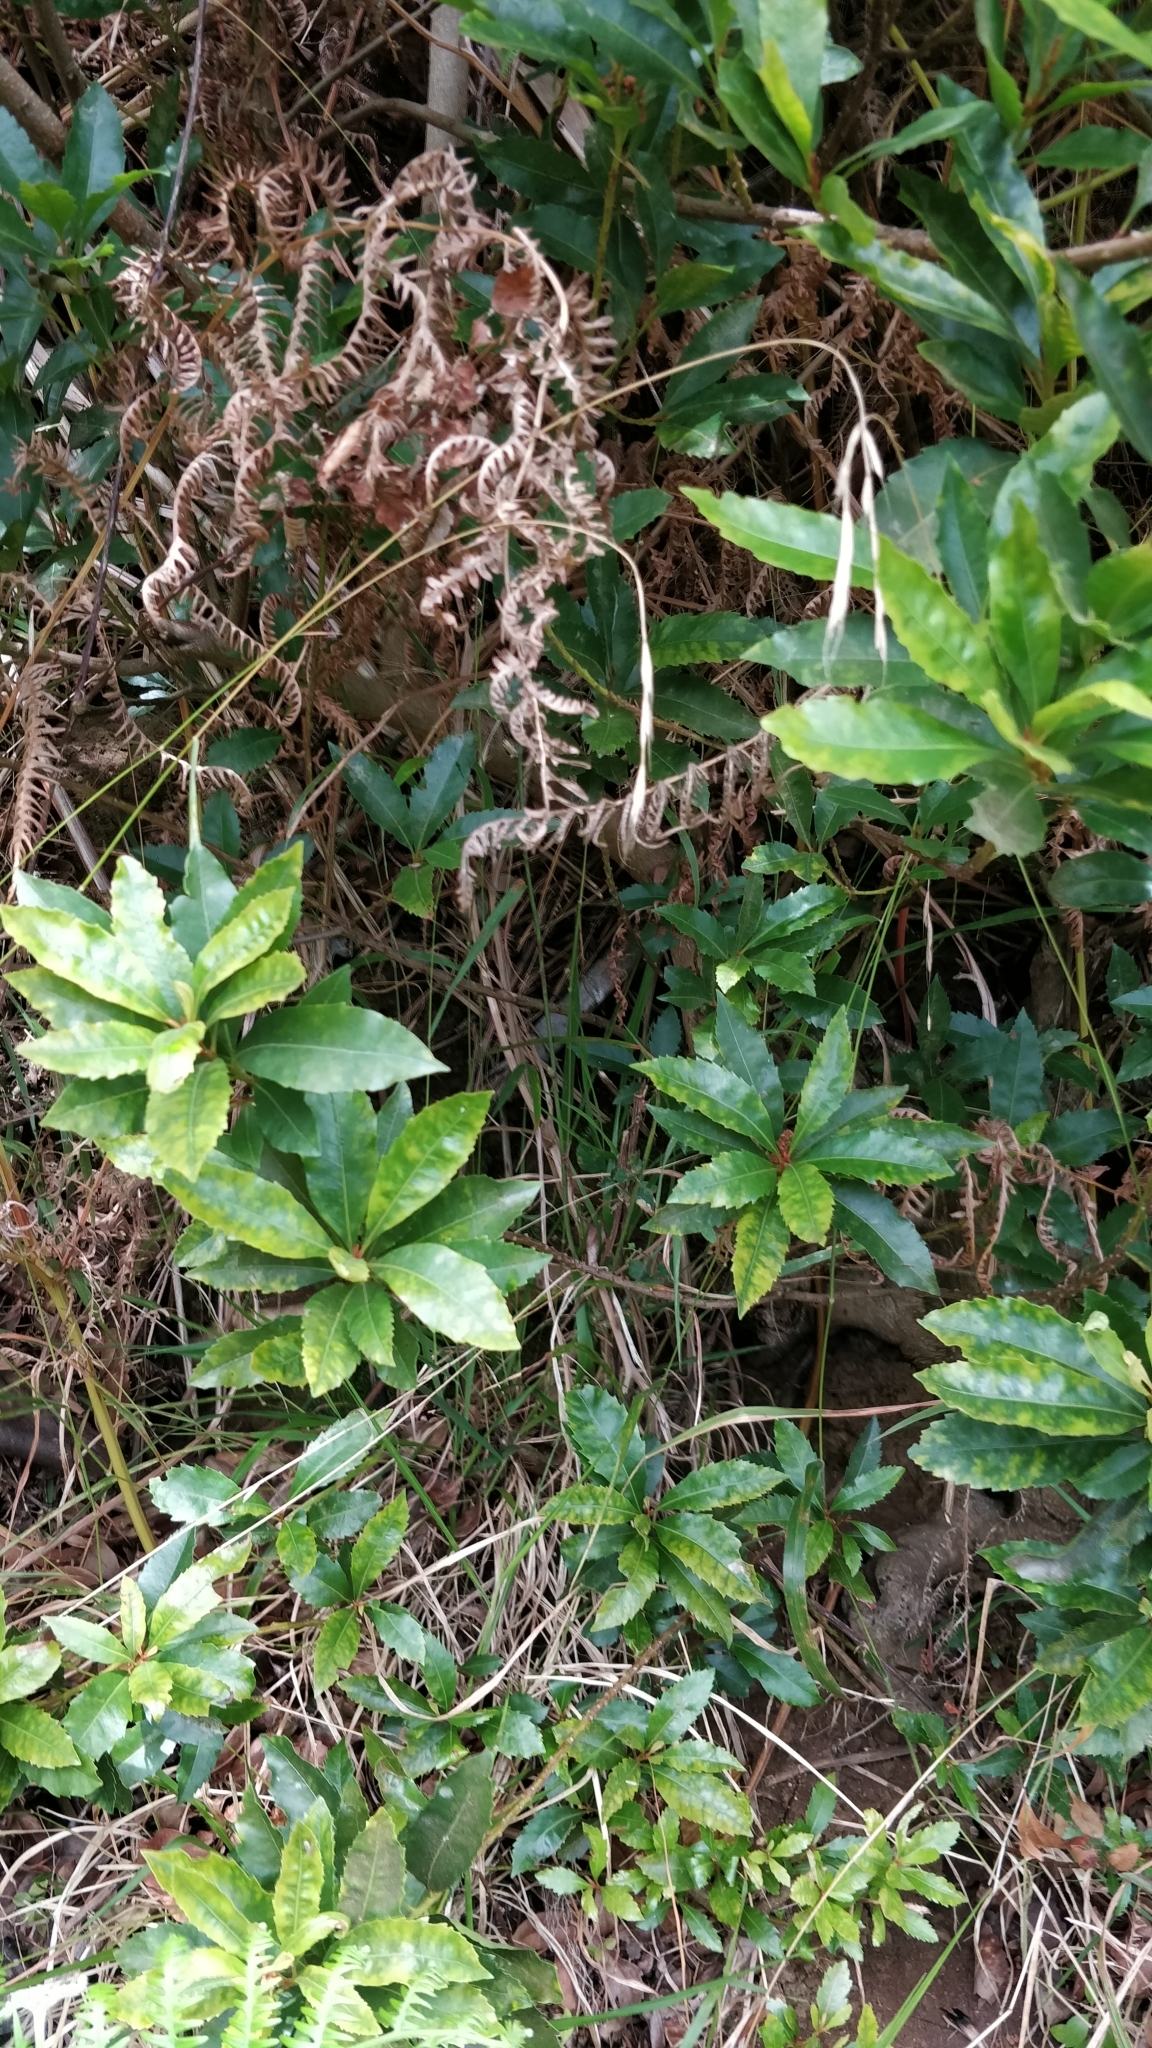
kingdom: Plantae
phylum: Tracheophyta
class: Magnoliopsida
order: Fagales
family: Myricaceae
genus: Morella
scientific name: Morella faya
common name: Firetree
